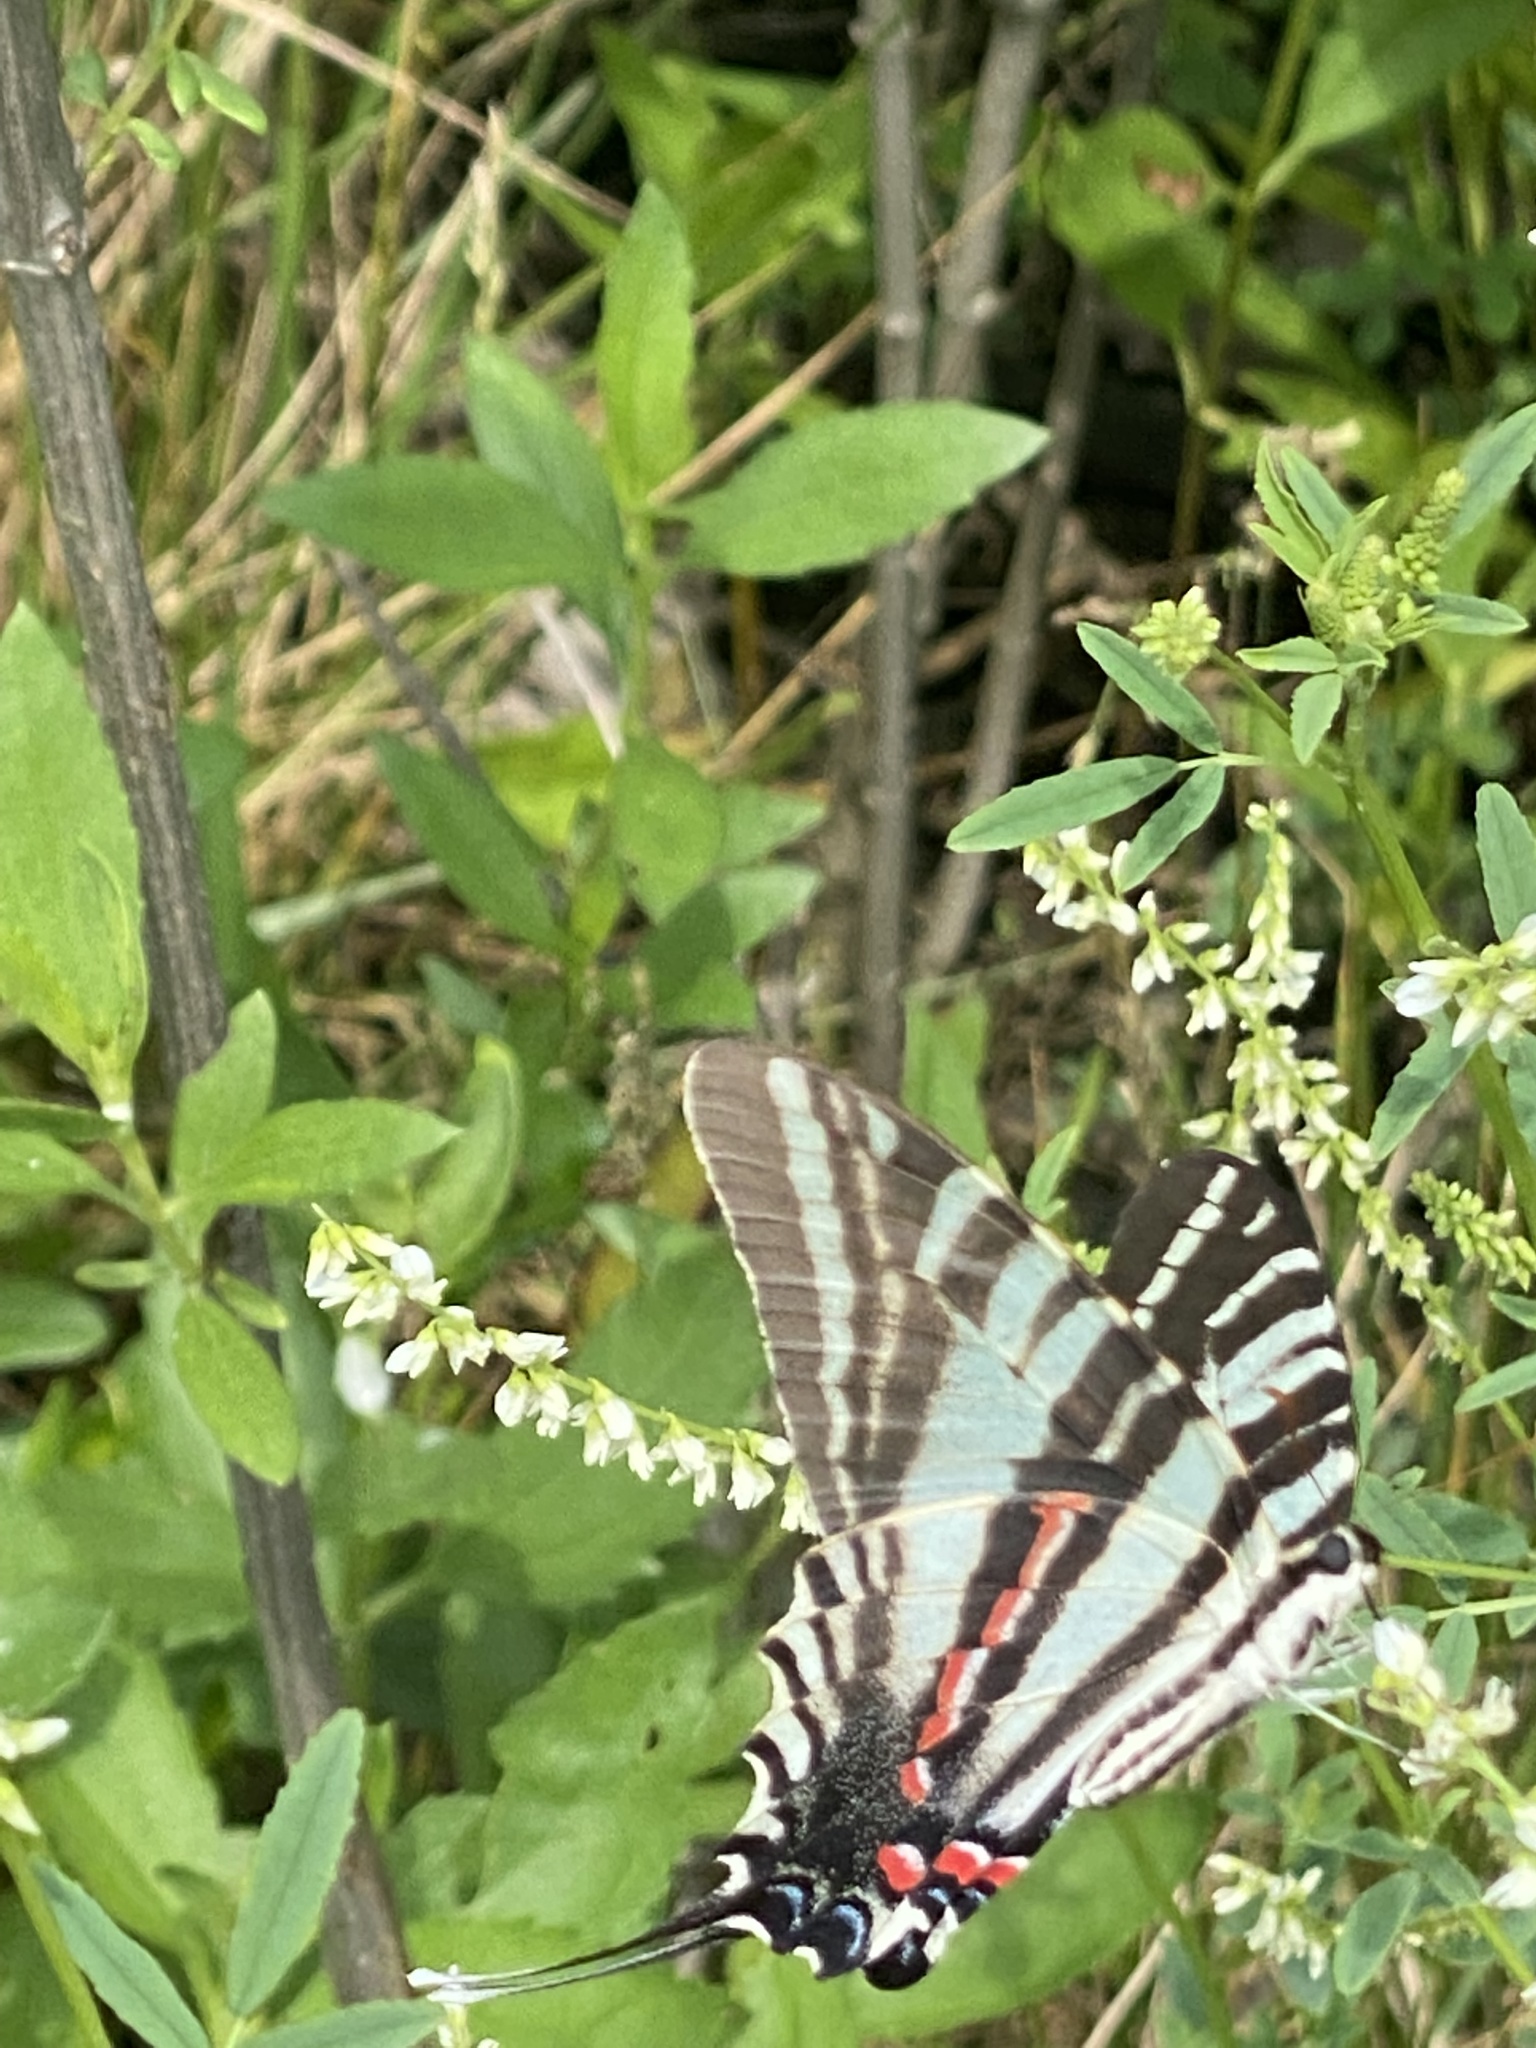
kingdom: Animalia
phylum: Arthropoda
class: Insecta
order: Lepidoptera
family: Papilionidae
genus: Protographium
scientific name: Protographium marcellus
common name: Zebra swallowtail
